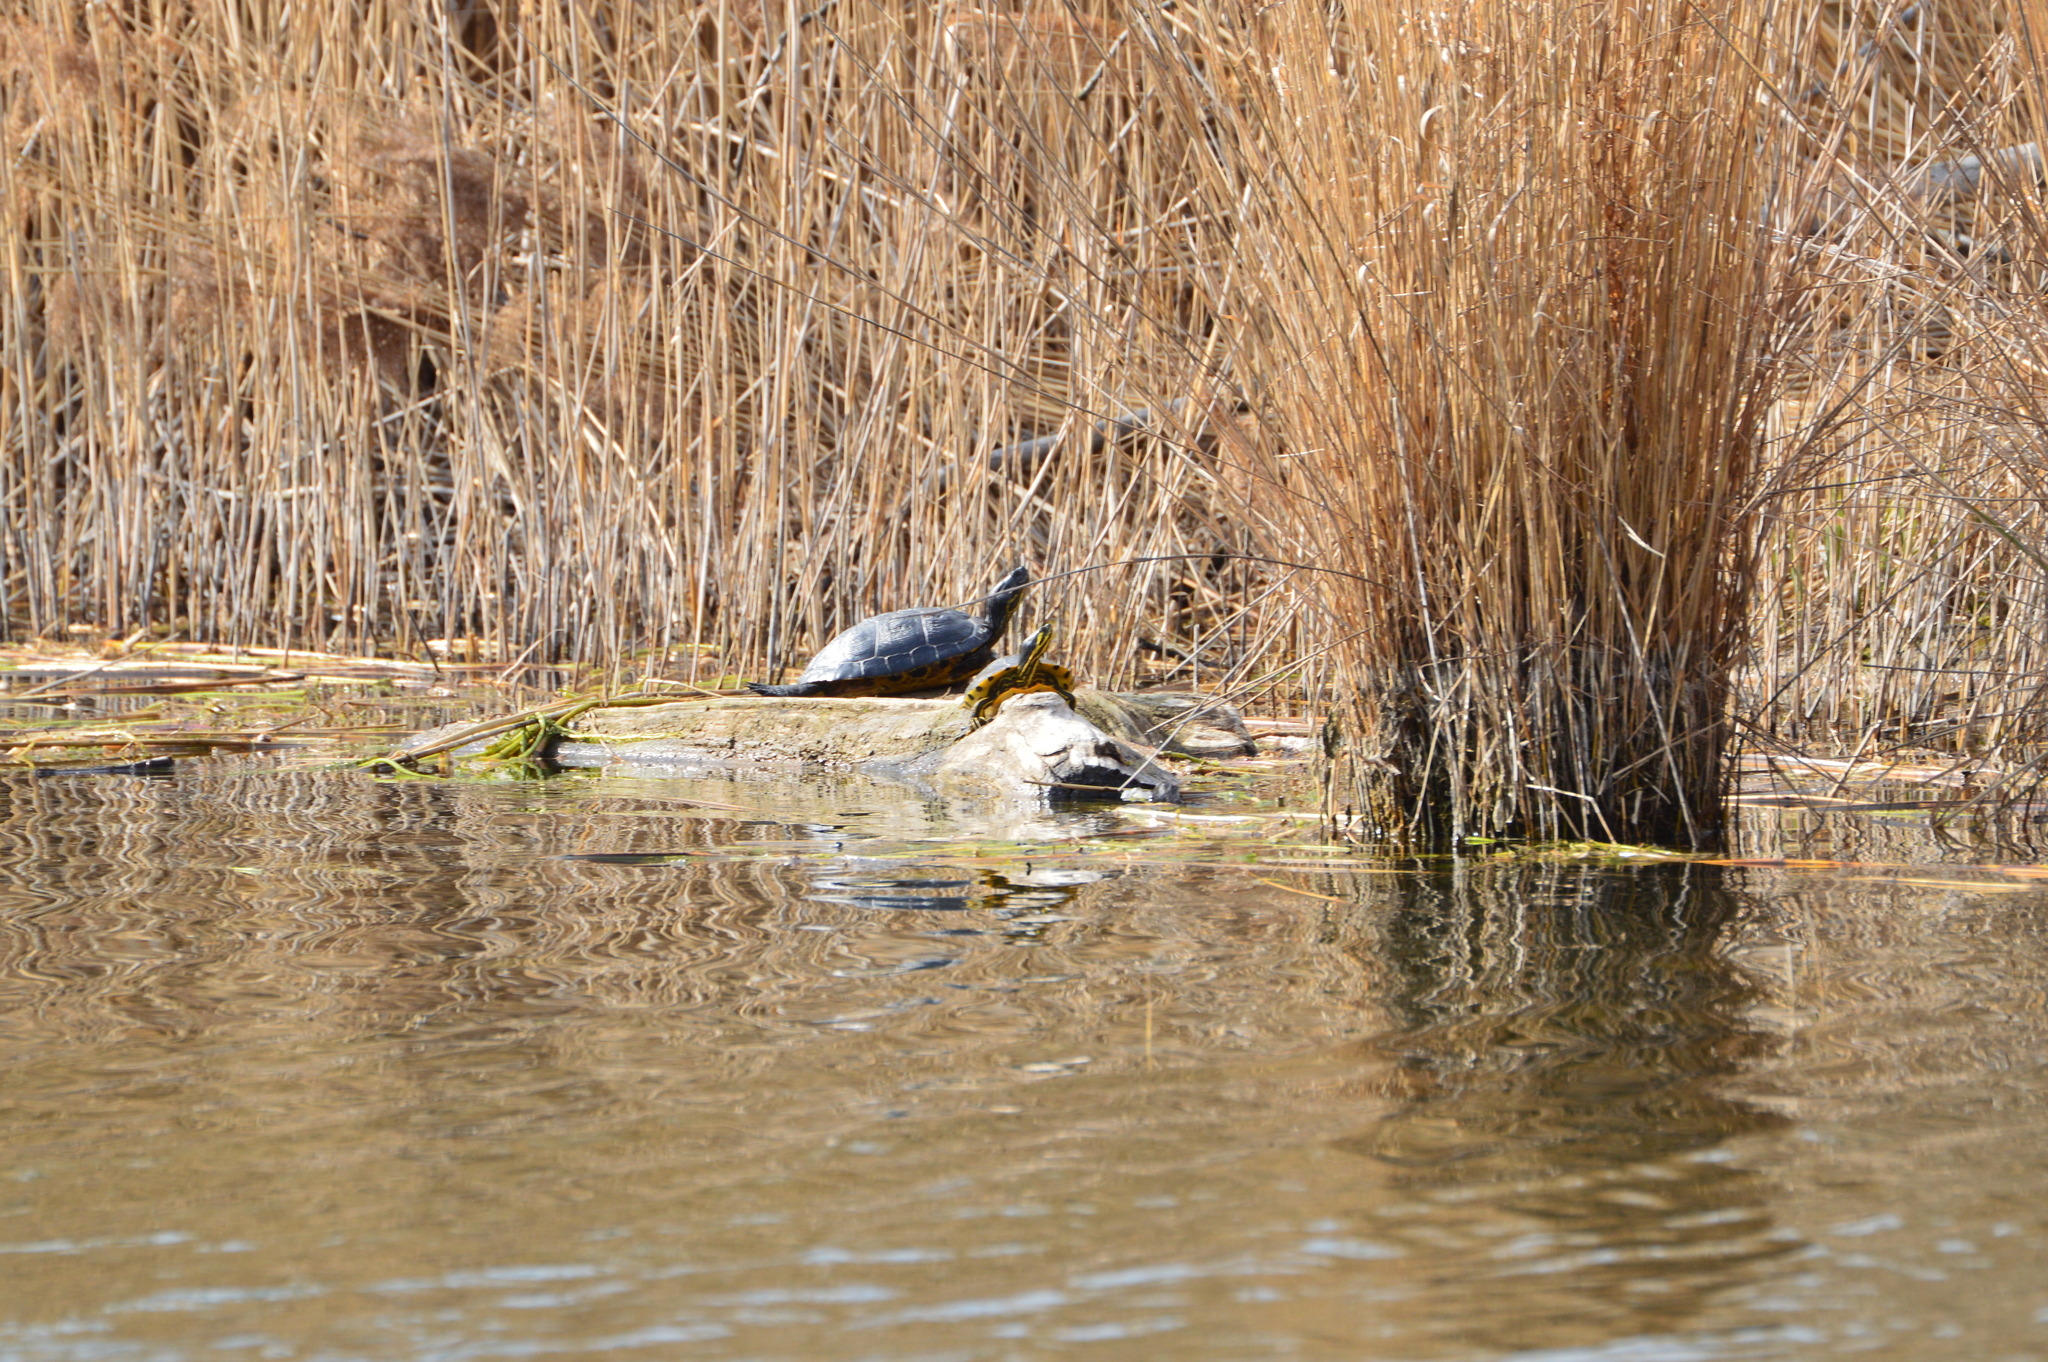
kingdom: Animalia
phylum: Chordata
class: Testudines
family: Emydidae
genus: Trachemys
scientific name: Trachemys scripta
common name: Slider
